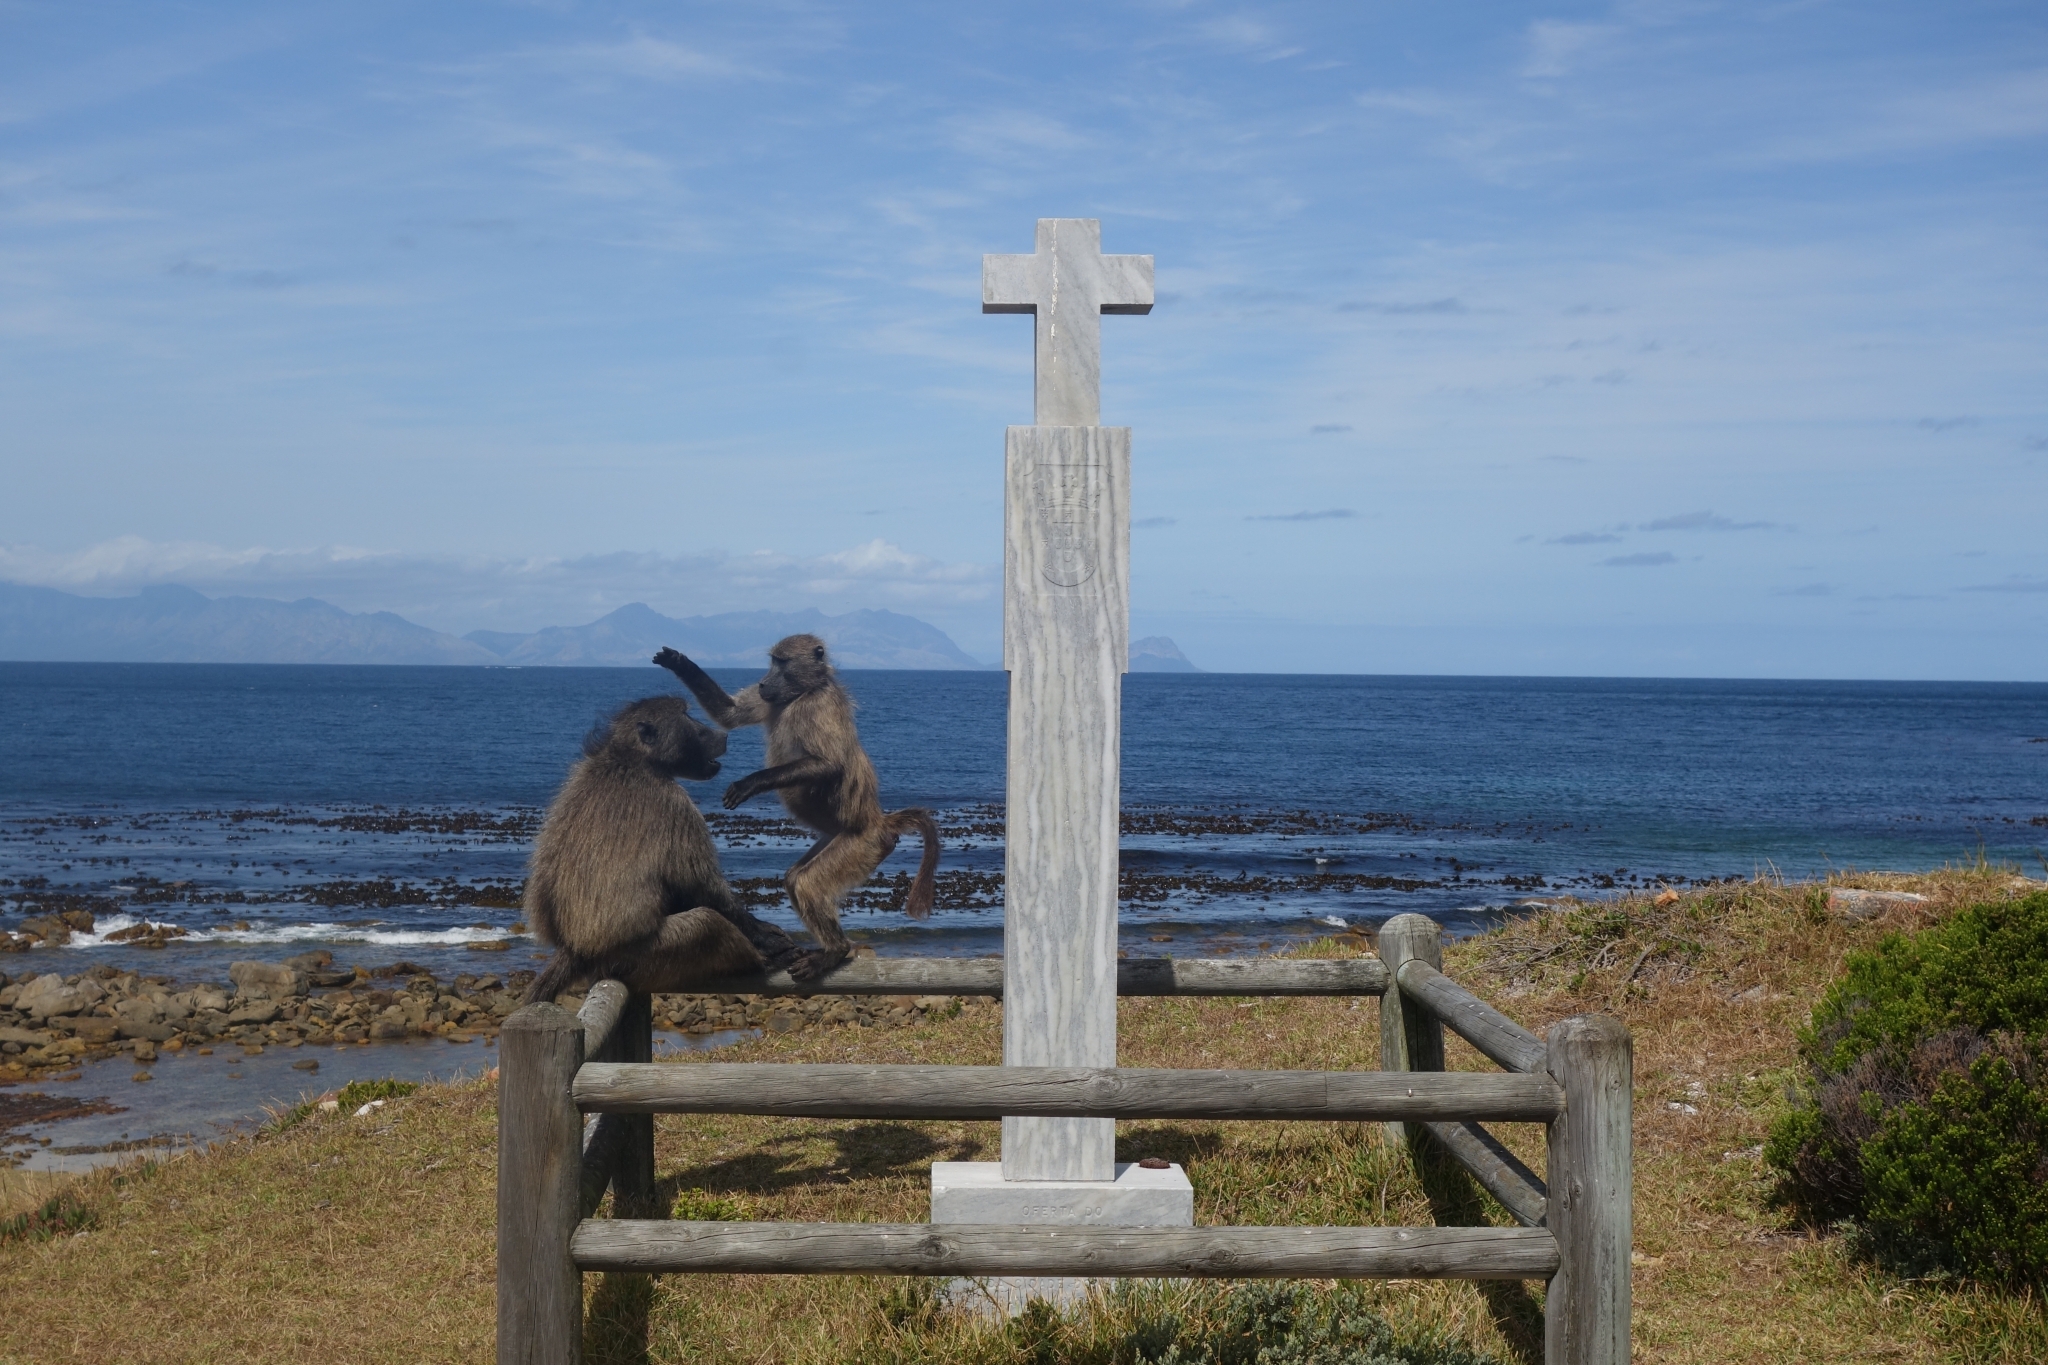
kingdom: Animalia
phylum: Chordata
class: Mammalia
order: Primates
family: Cercopithecidae
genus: Papio
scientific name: Papio ursinus
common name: Chacma baboon
